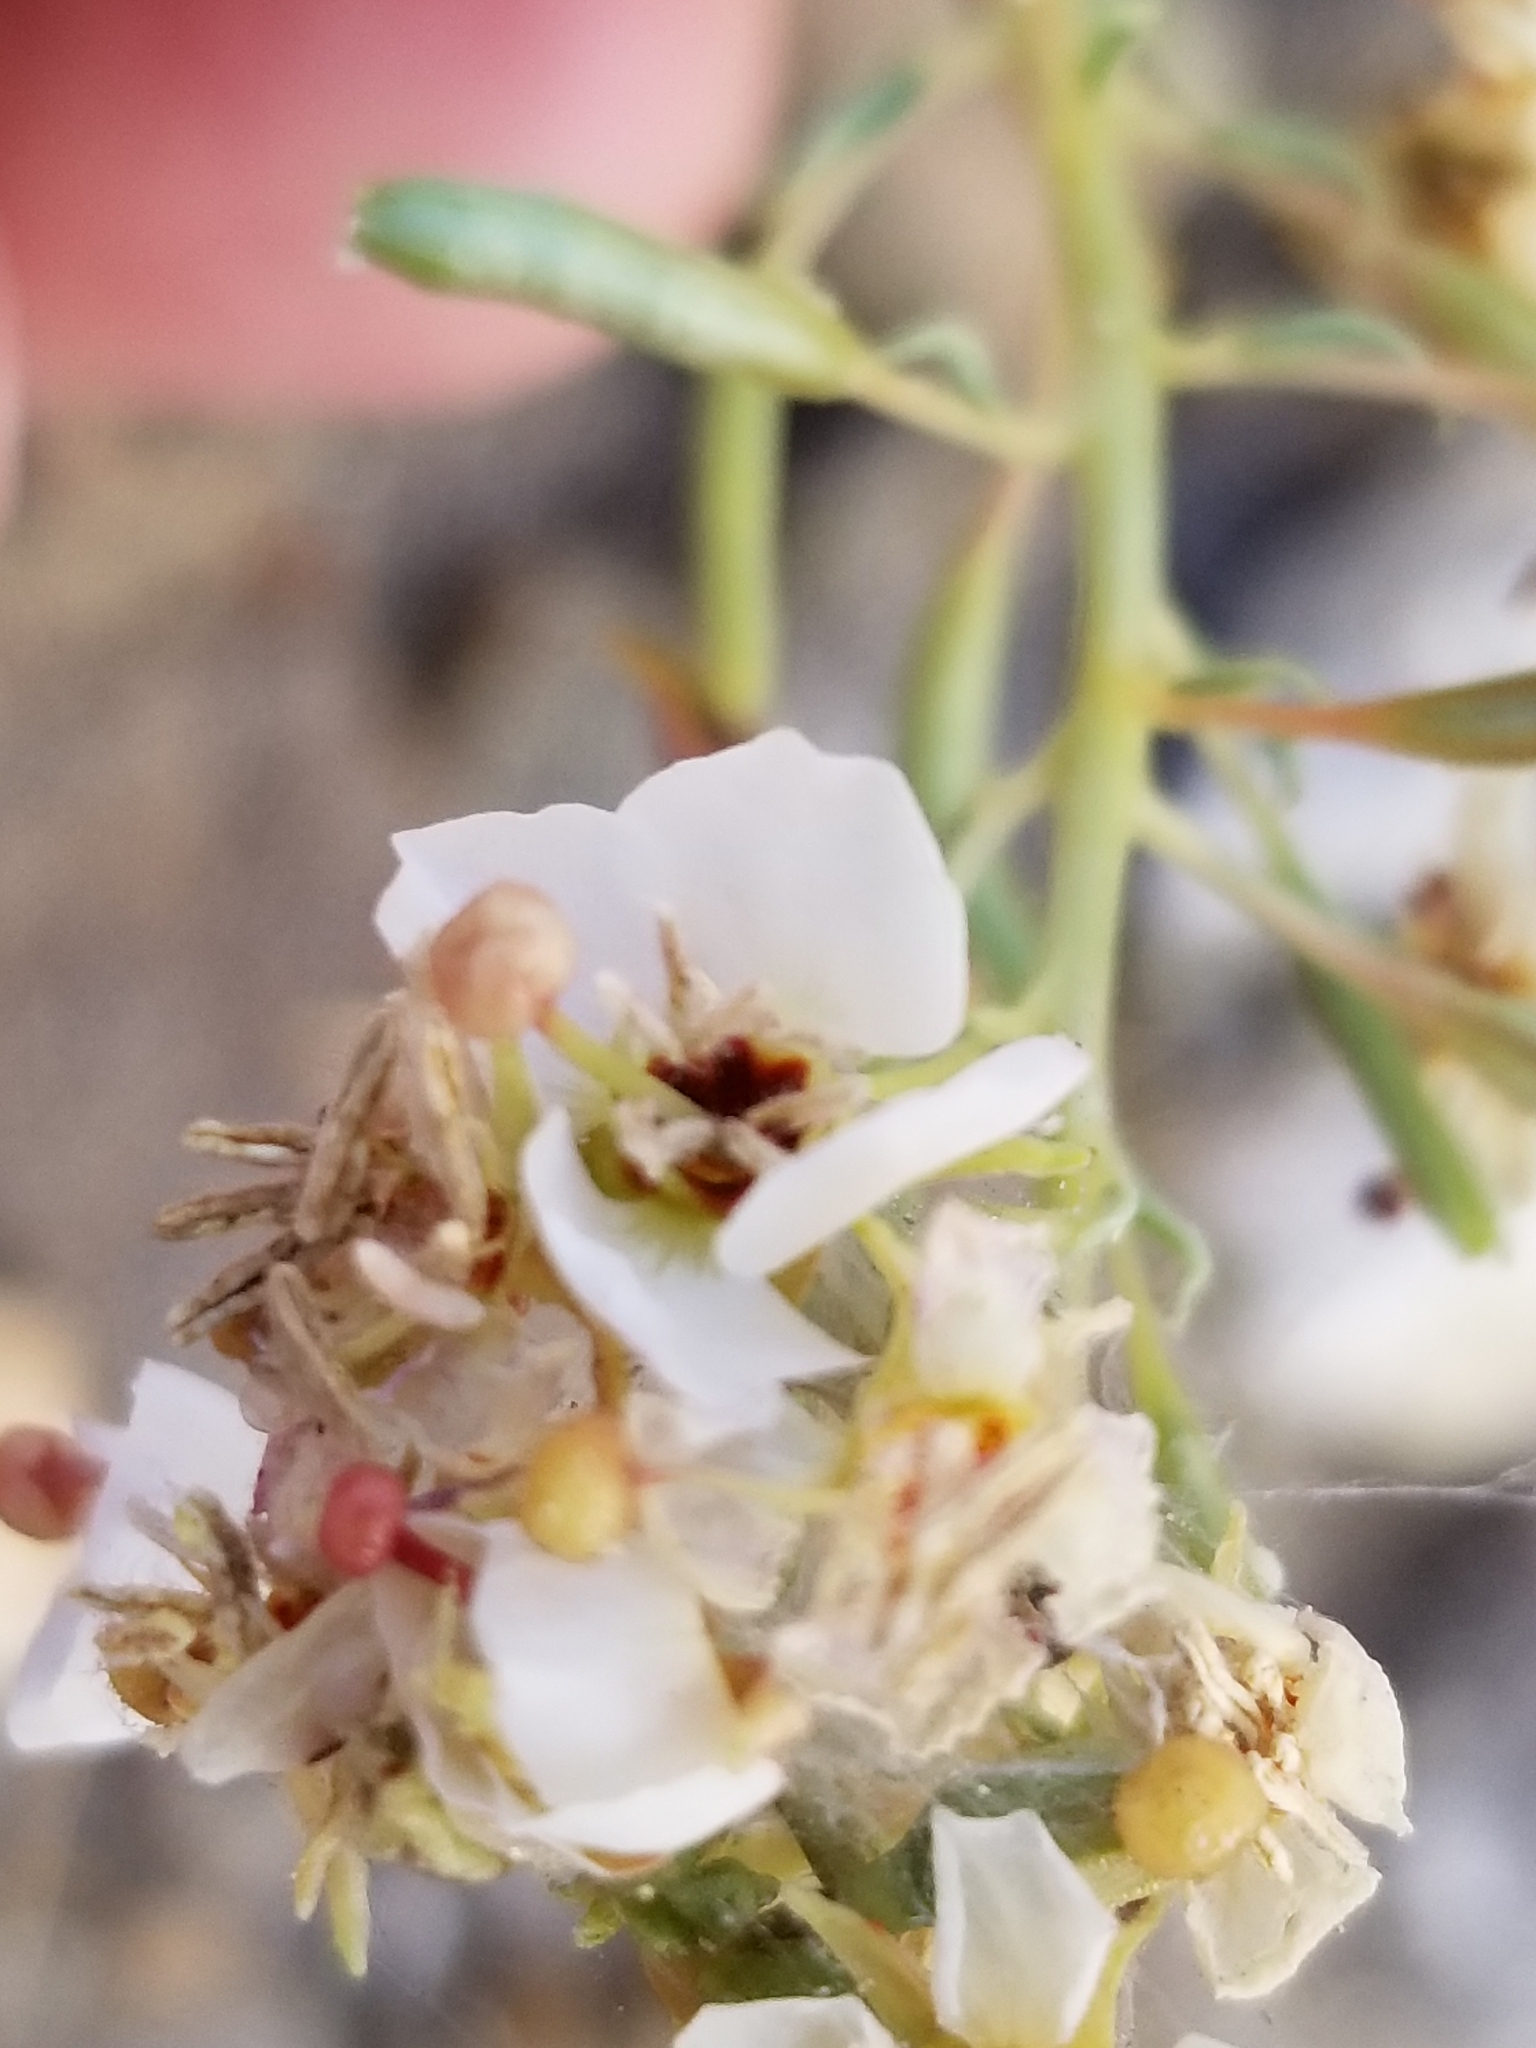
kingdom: Plantae
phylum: Tracheophyta
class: Magnoliopsida
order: Myrtales
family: Onagraceae
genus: Chylismia
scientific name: Chylismia claviformis
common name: Browneyes
